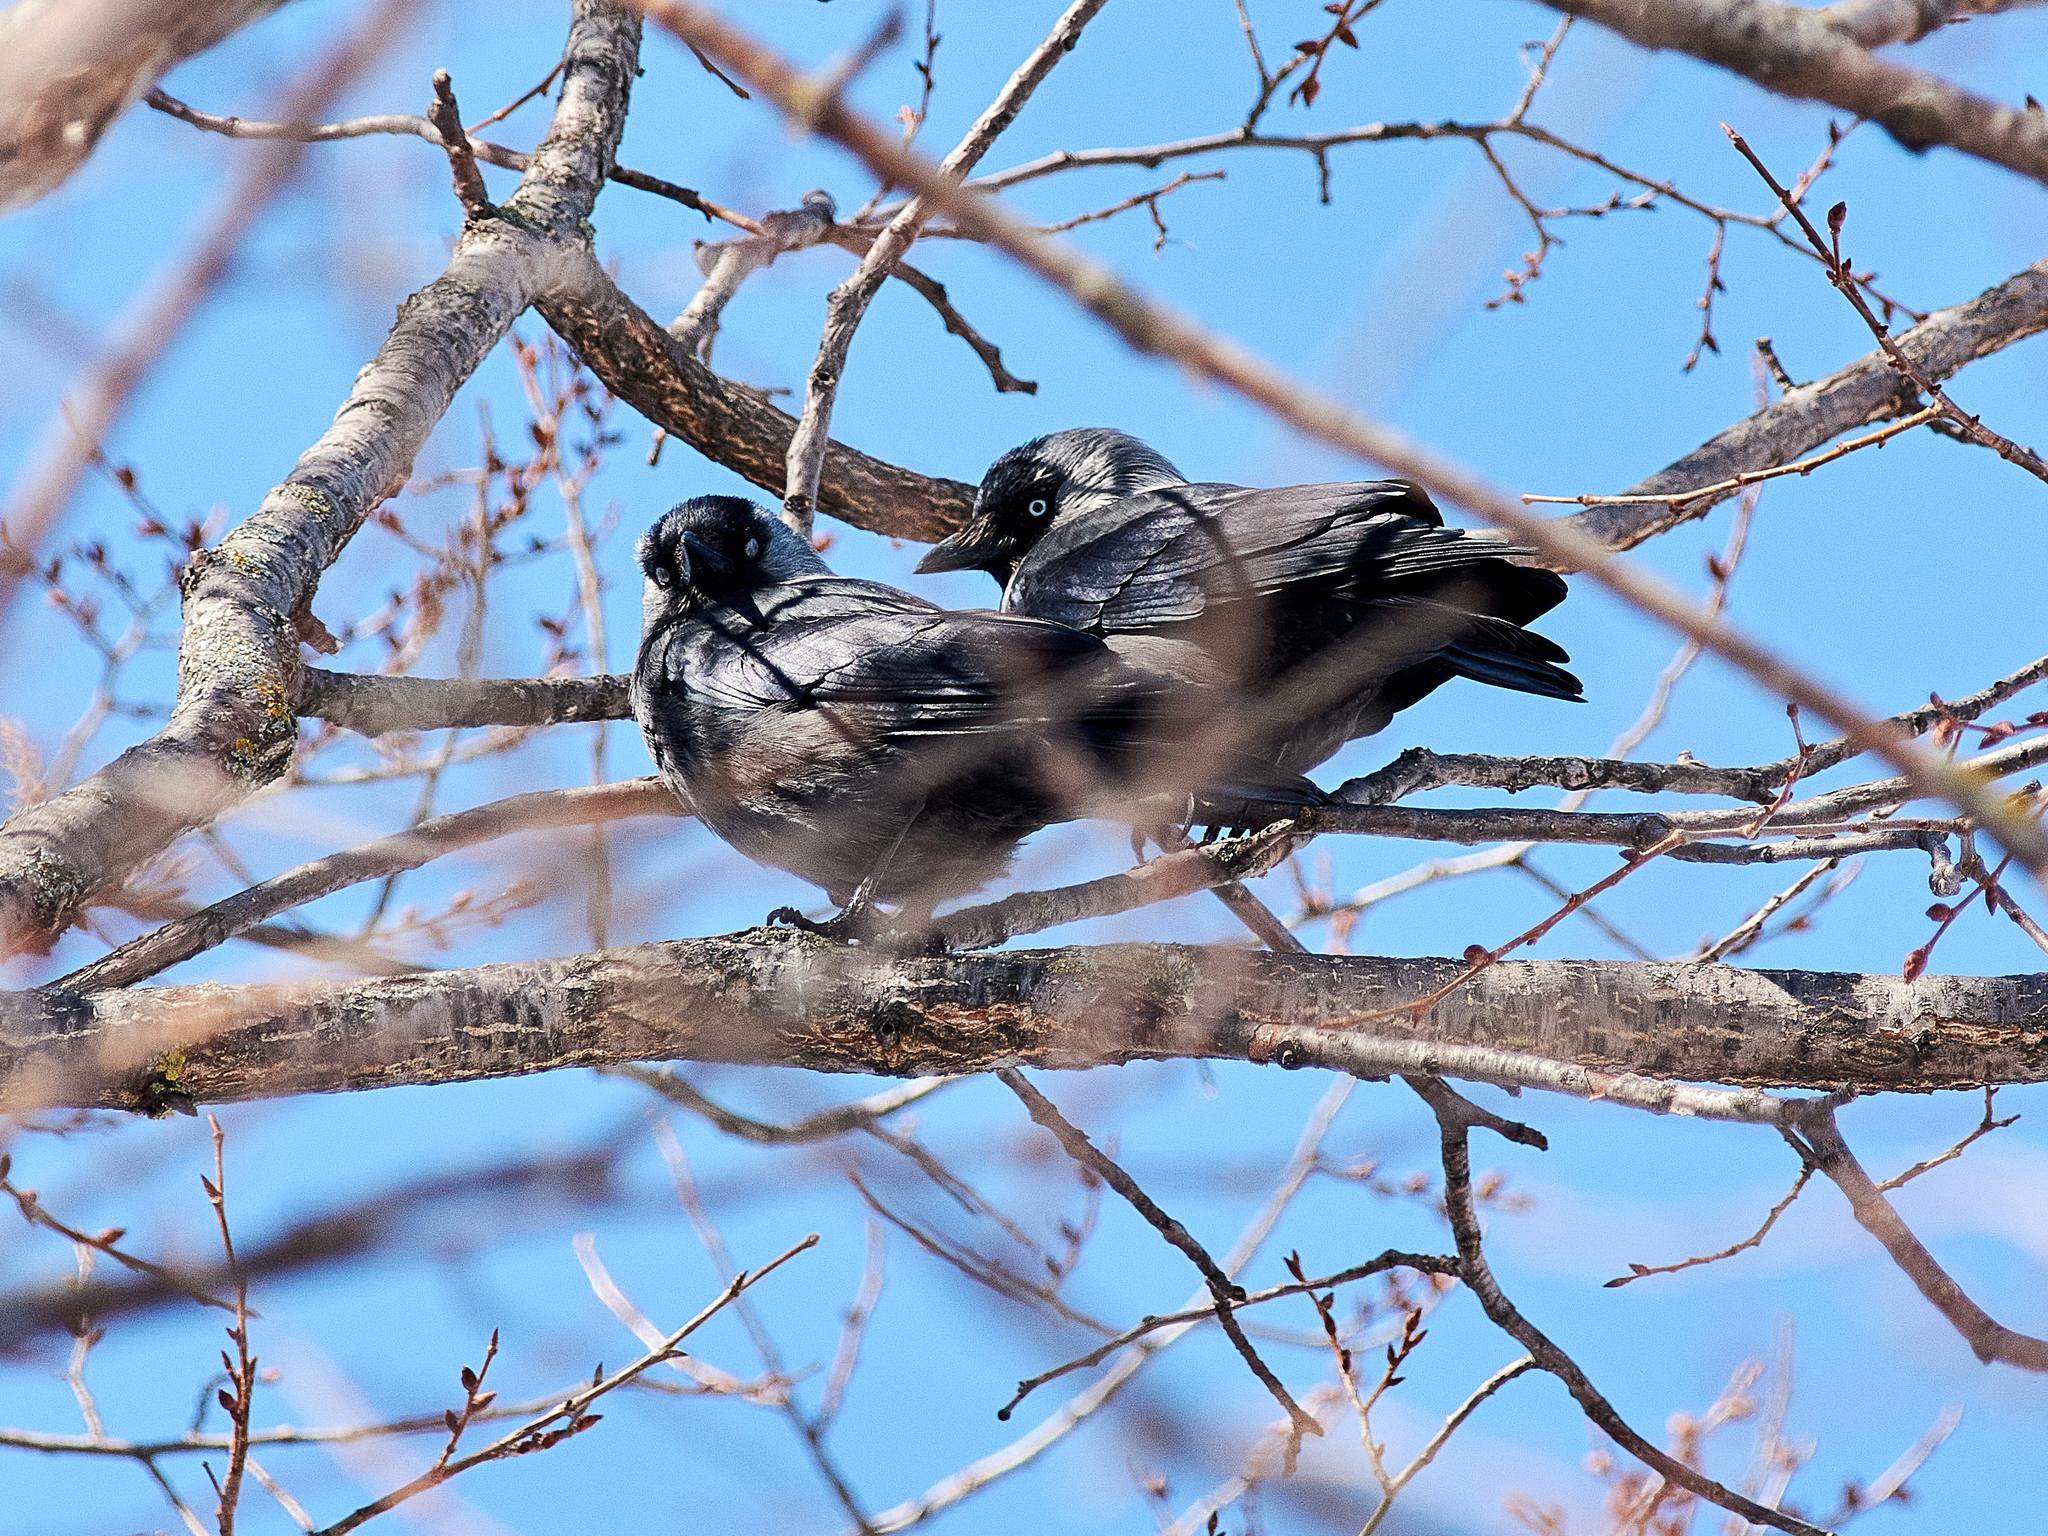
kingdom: Animalia
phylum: Chordata
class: Aves
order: Passeriformes
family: Corvidae
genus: Coloeus
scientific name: Coloeus monedula
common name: Western jackdaw
